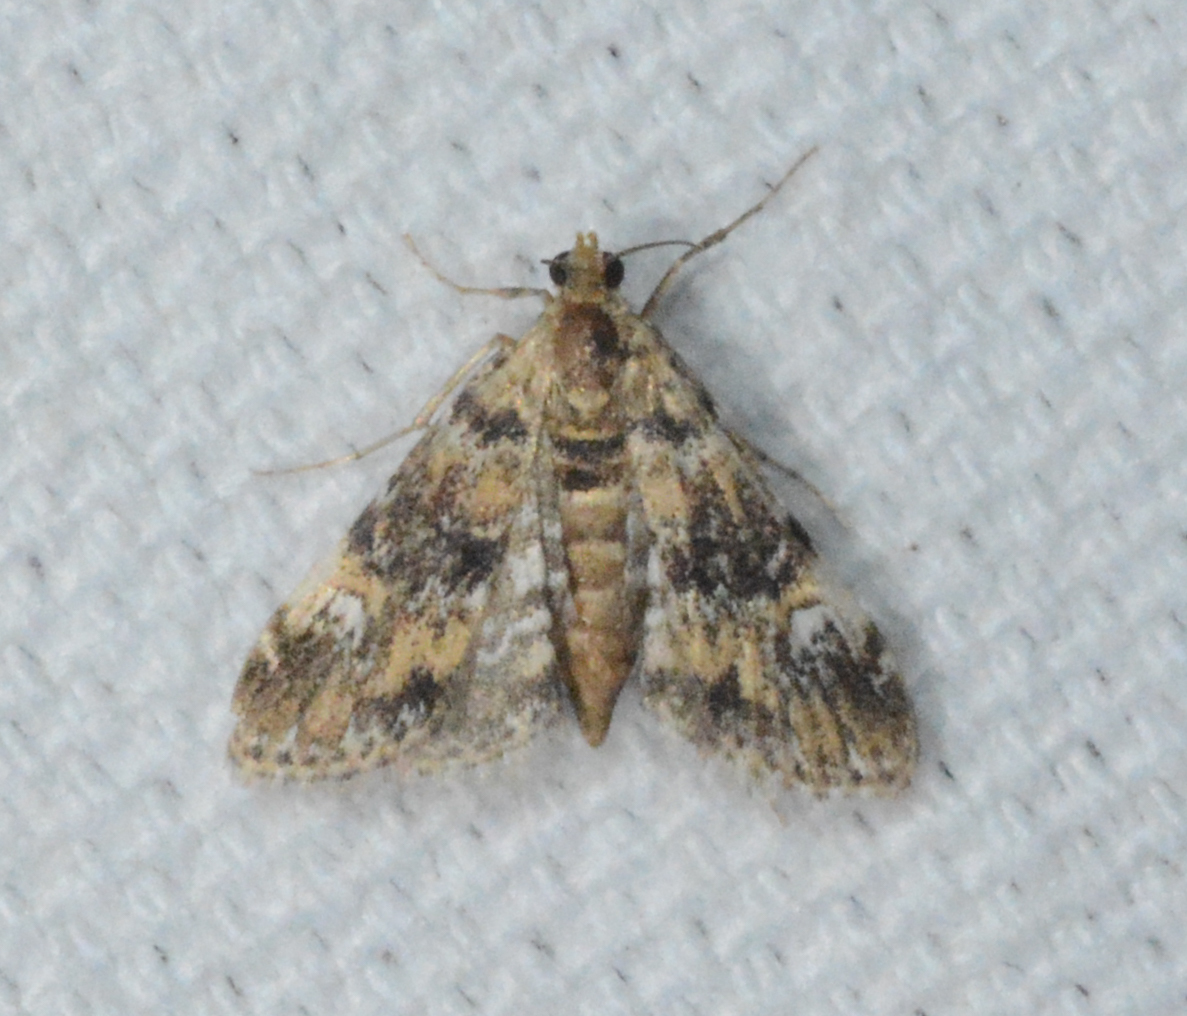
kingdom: Animalia
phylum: Arthropoda
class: Insecta
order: Lepidoptera
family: Crambidae
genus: Elophila
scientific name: Elophila obliteralis
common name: Waterlily leafcutter moth
